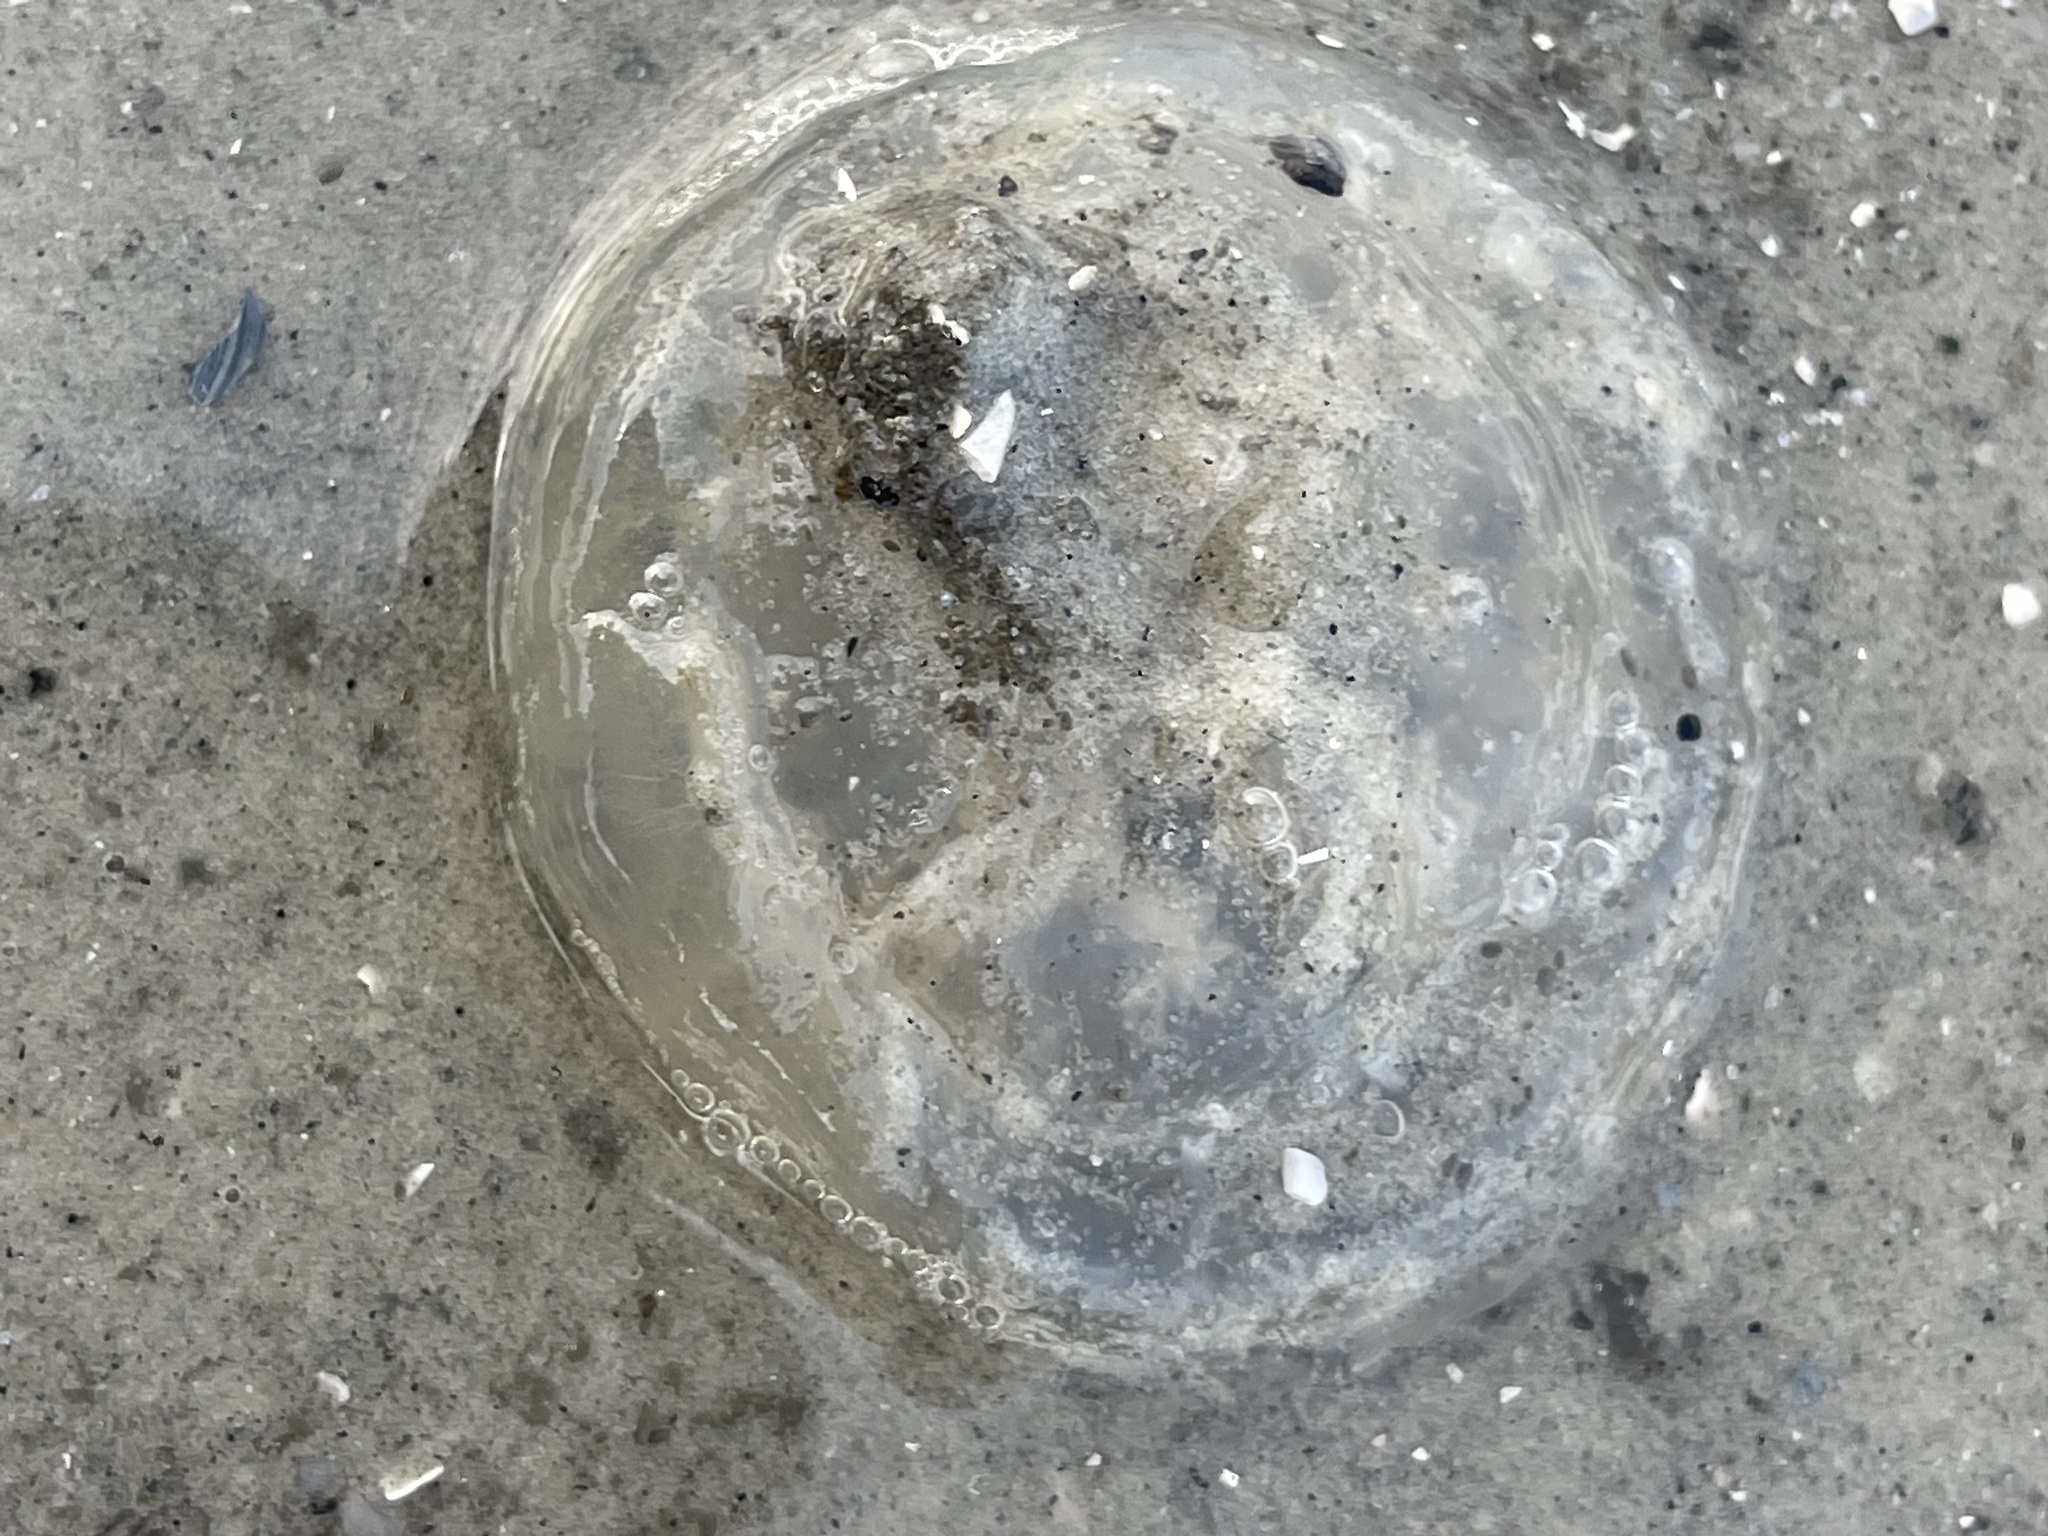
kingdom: Animalia
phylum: Cnidaria
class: Scyphozoa
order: Semaeostomeae
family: Ulmaridae
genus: Aurelia
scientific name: Aurelia marginalis
